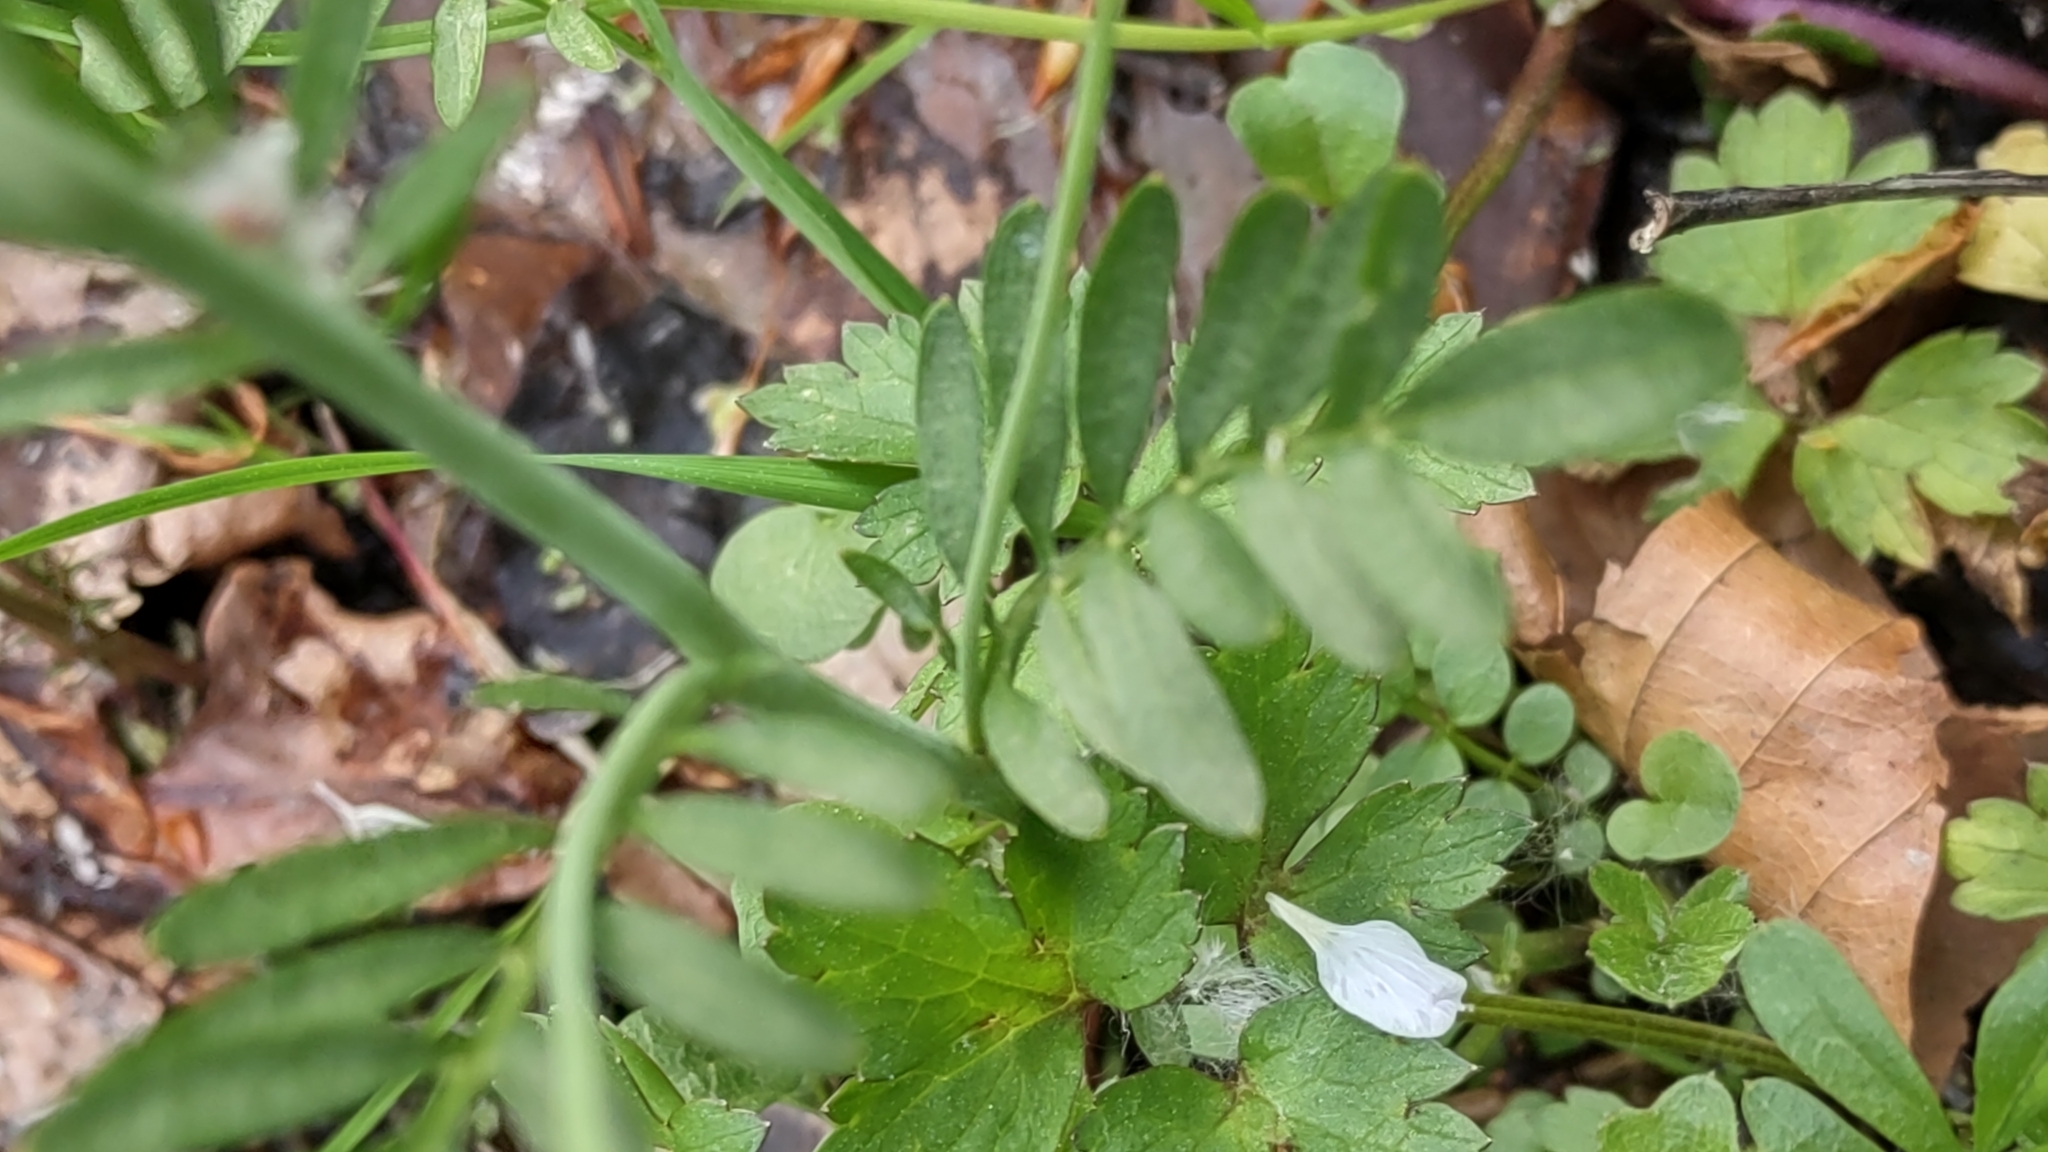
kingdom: Plantae
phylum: Tracheophyta
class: Magnoliopsida
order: Brassicales
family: Brassicaceae
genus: Cardamine
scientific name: Cardamine pratensis
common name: Cuckoo flower
